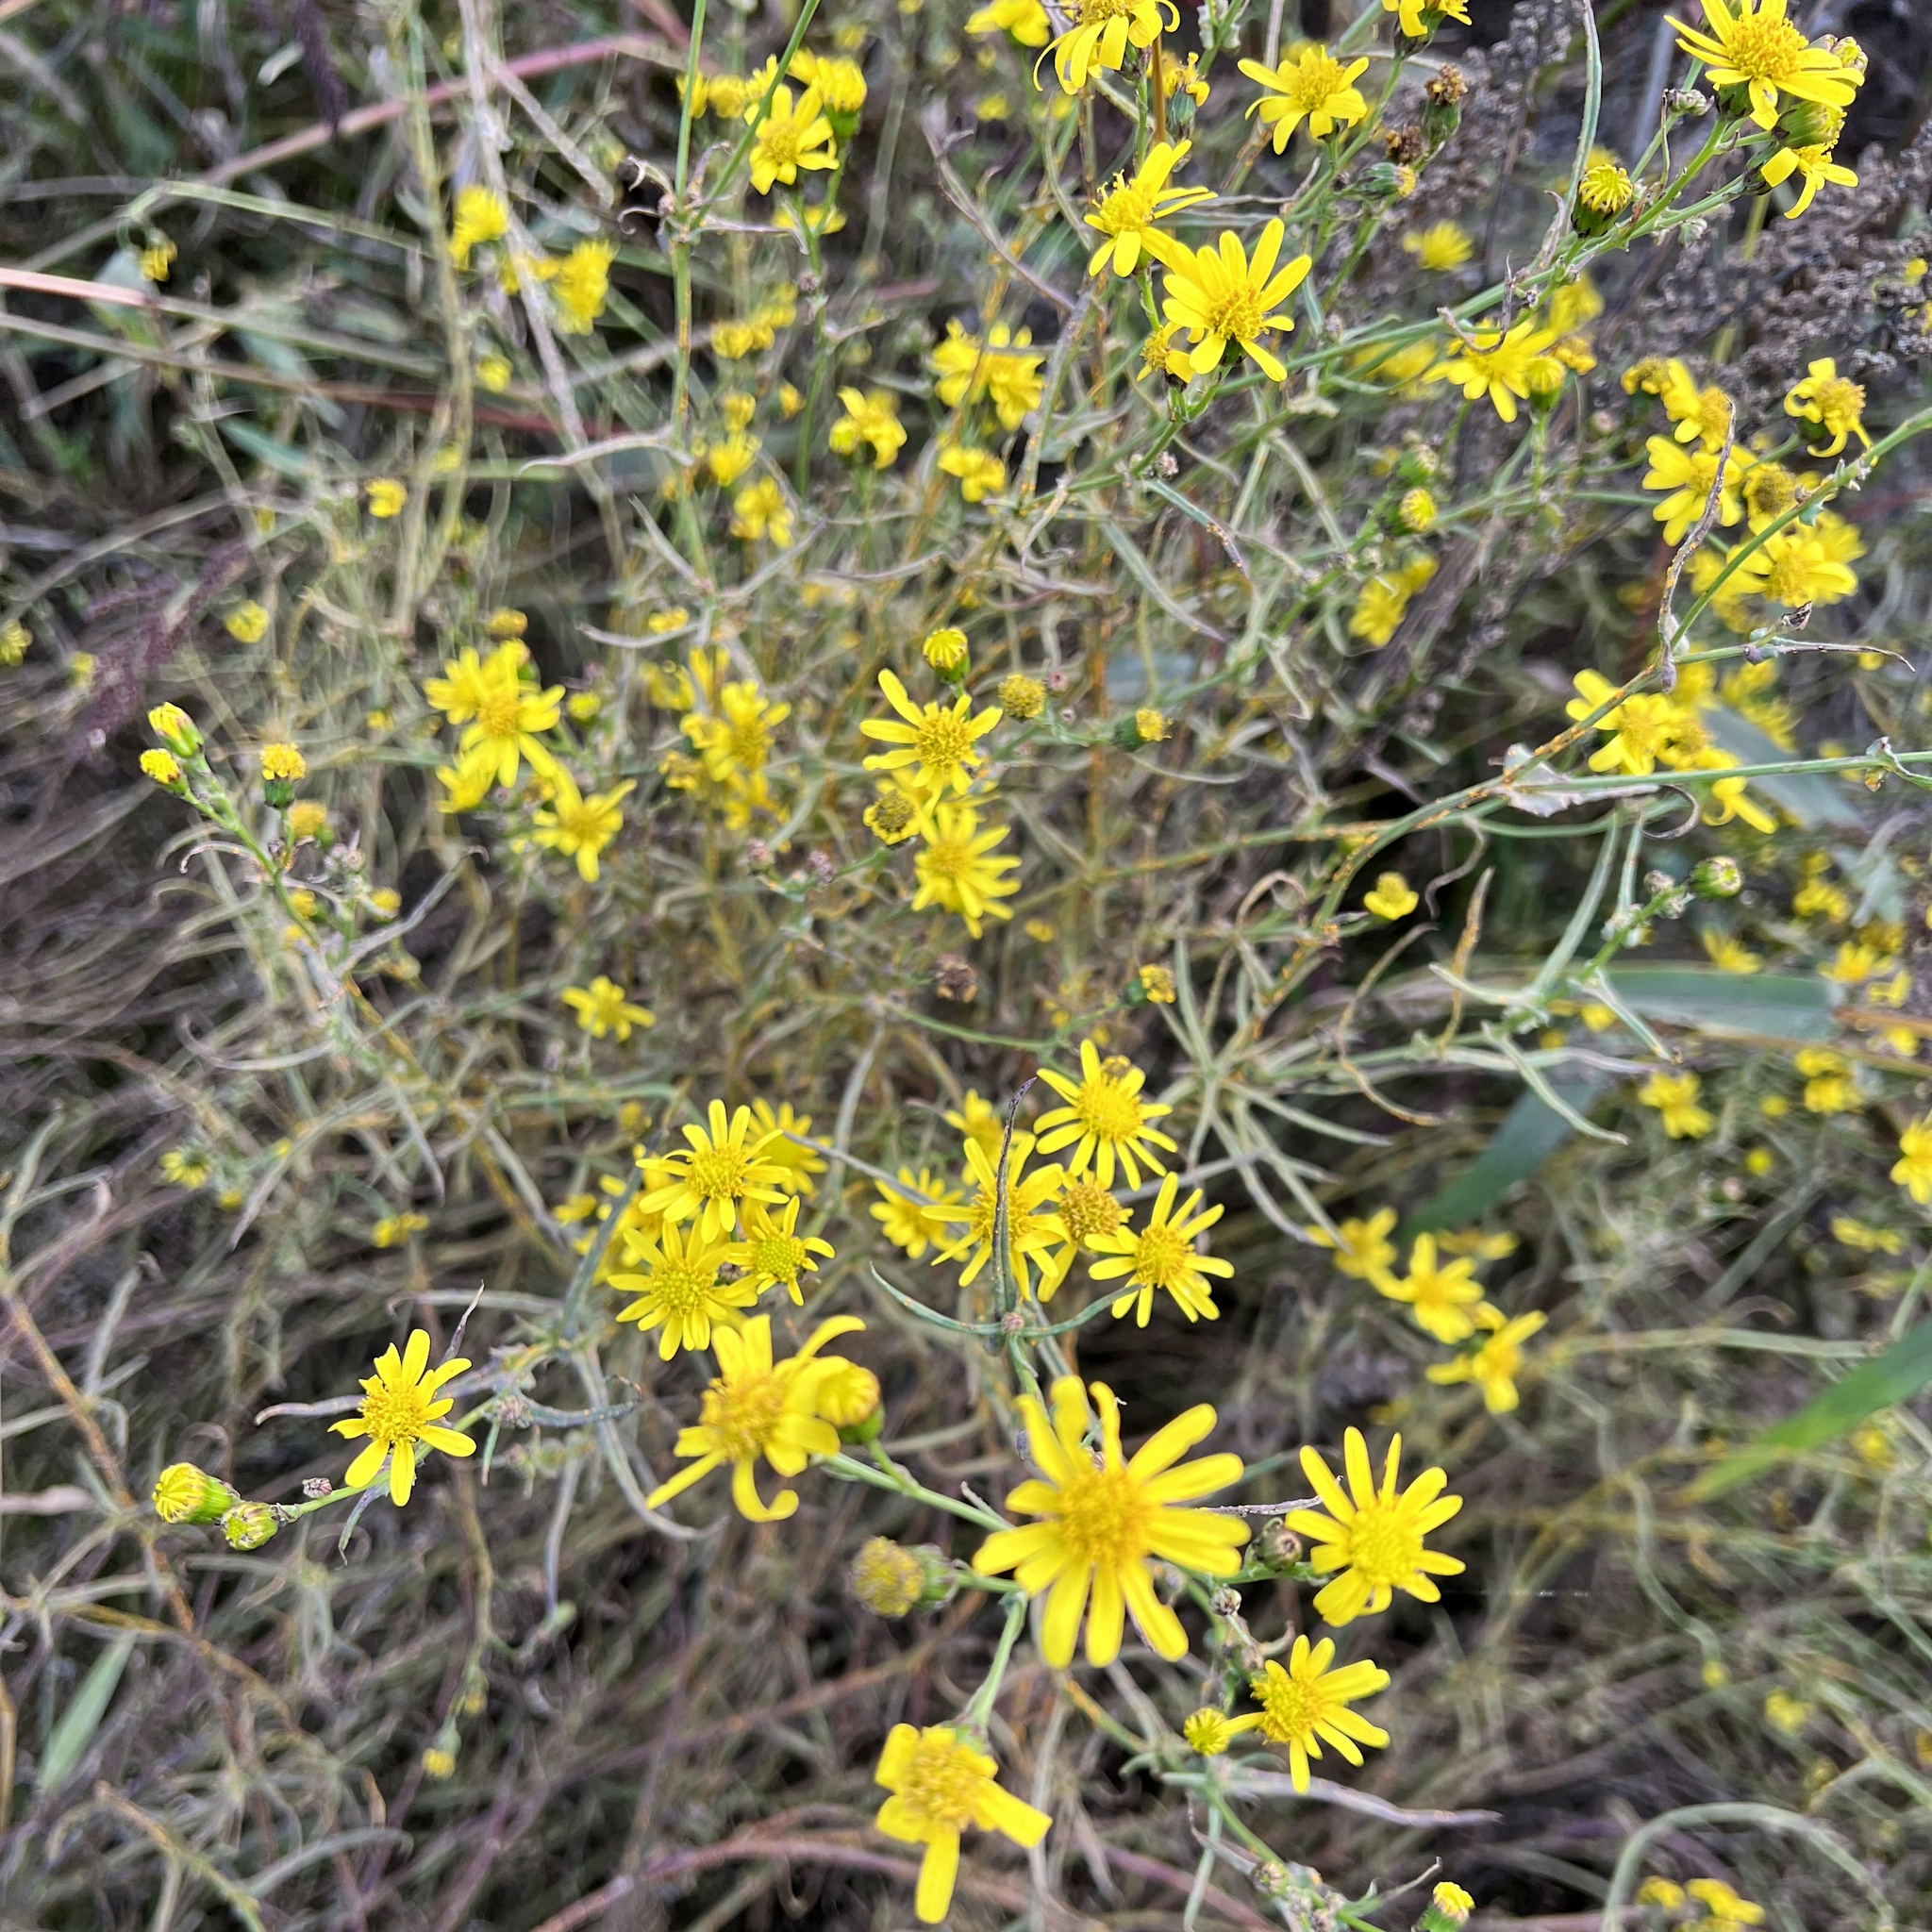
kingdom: Plantae
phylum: Tracheophyta
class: Magnoliopsida
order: Asterales
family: Asteraceae
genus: Senecio
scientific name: Senecio inaequidens
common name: Narrow-leaved ragwort
